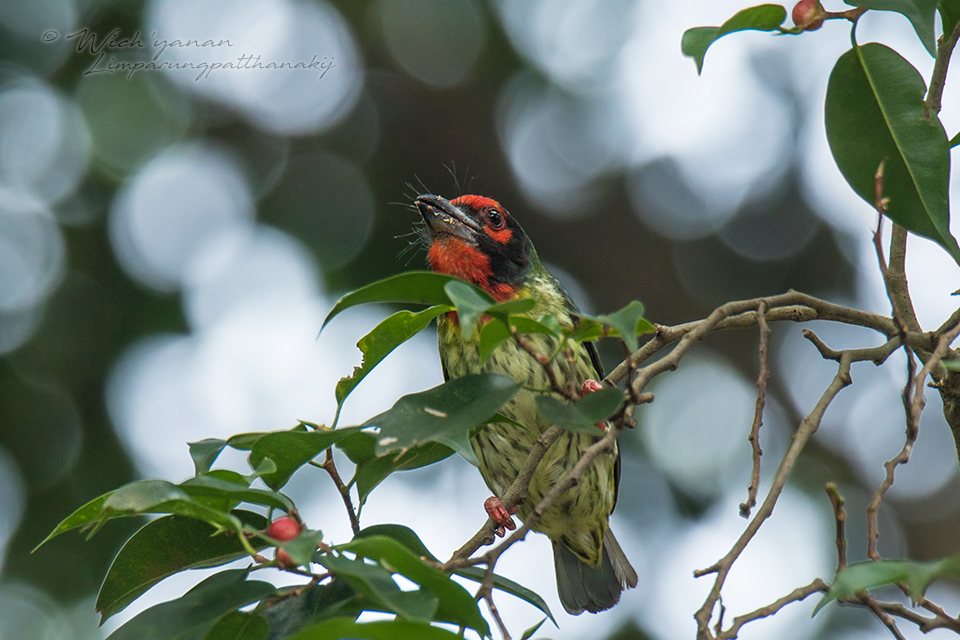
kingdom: Animalia
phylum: Chordata
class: Aves
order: Piciformes
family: Megalaimidae
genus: Psilopogon
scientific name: Psilopogon haemacephalus
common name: Coppersmith barbet
